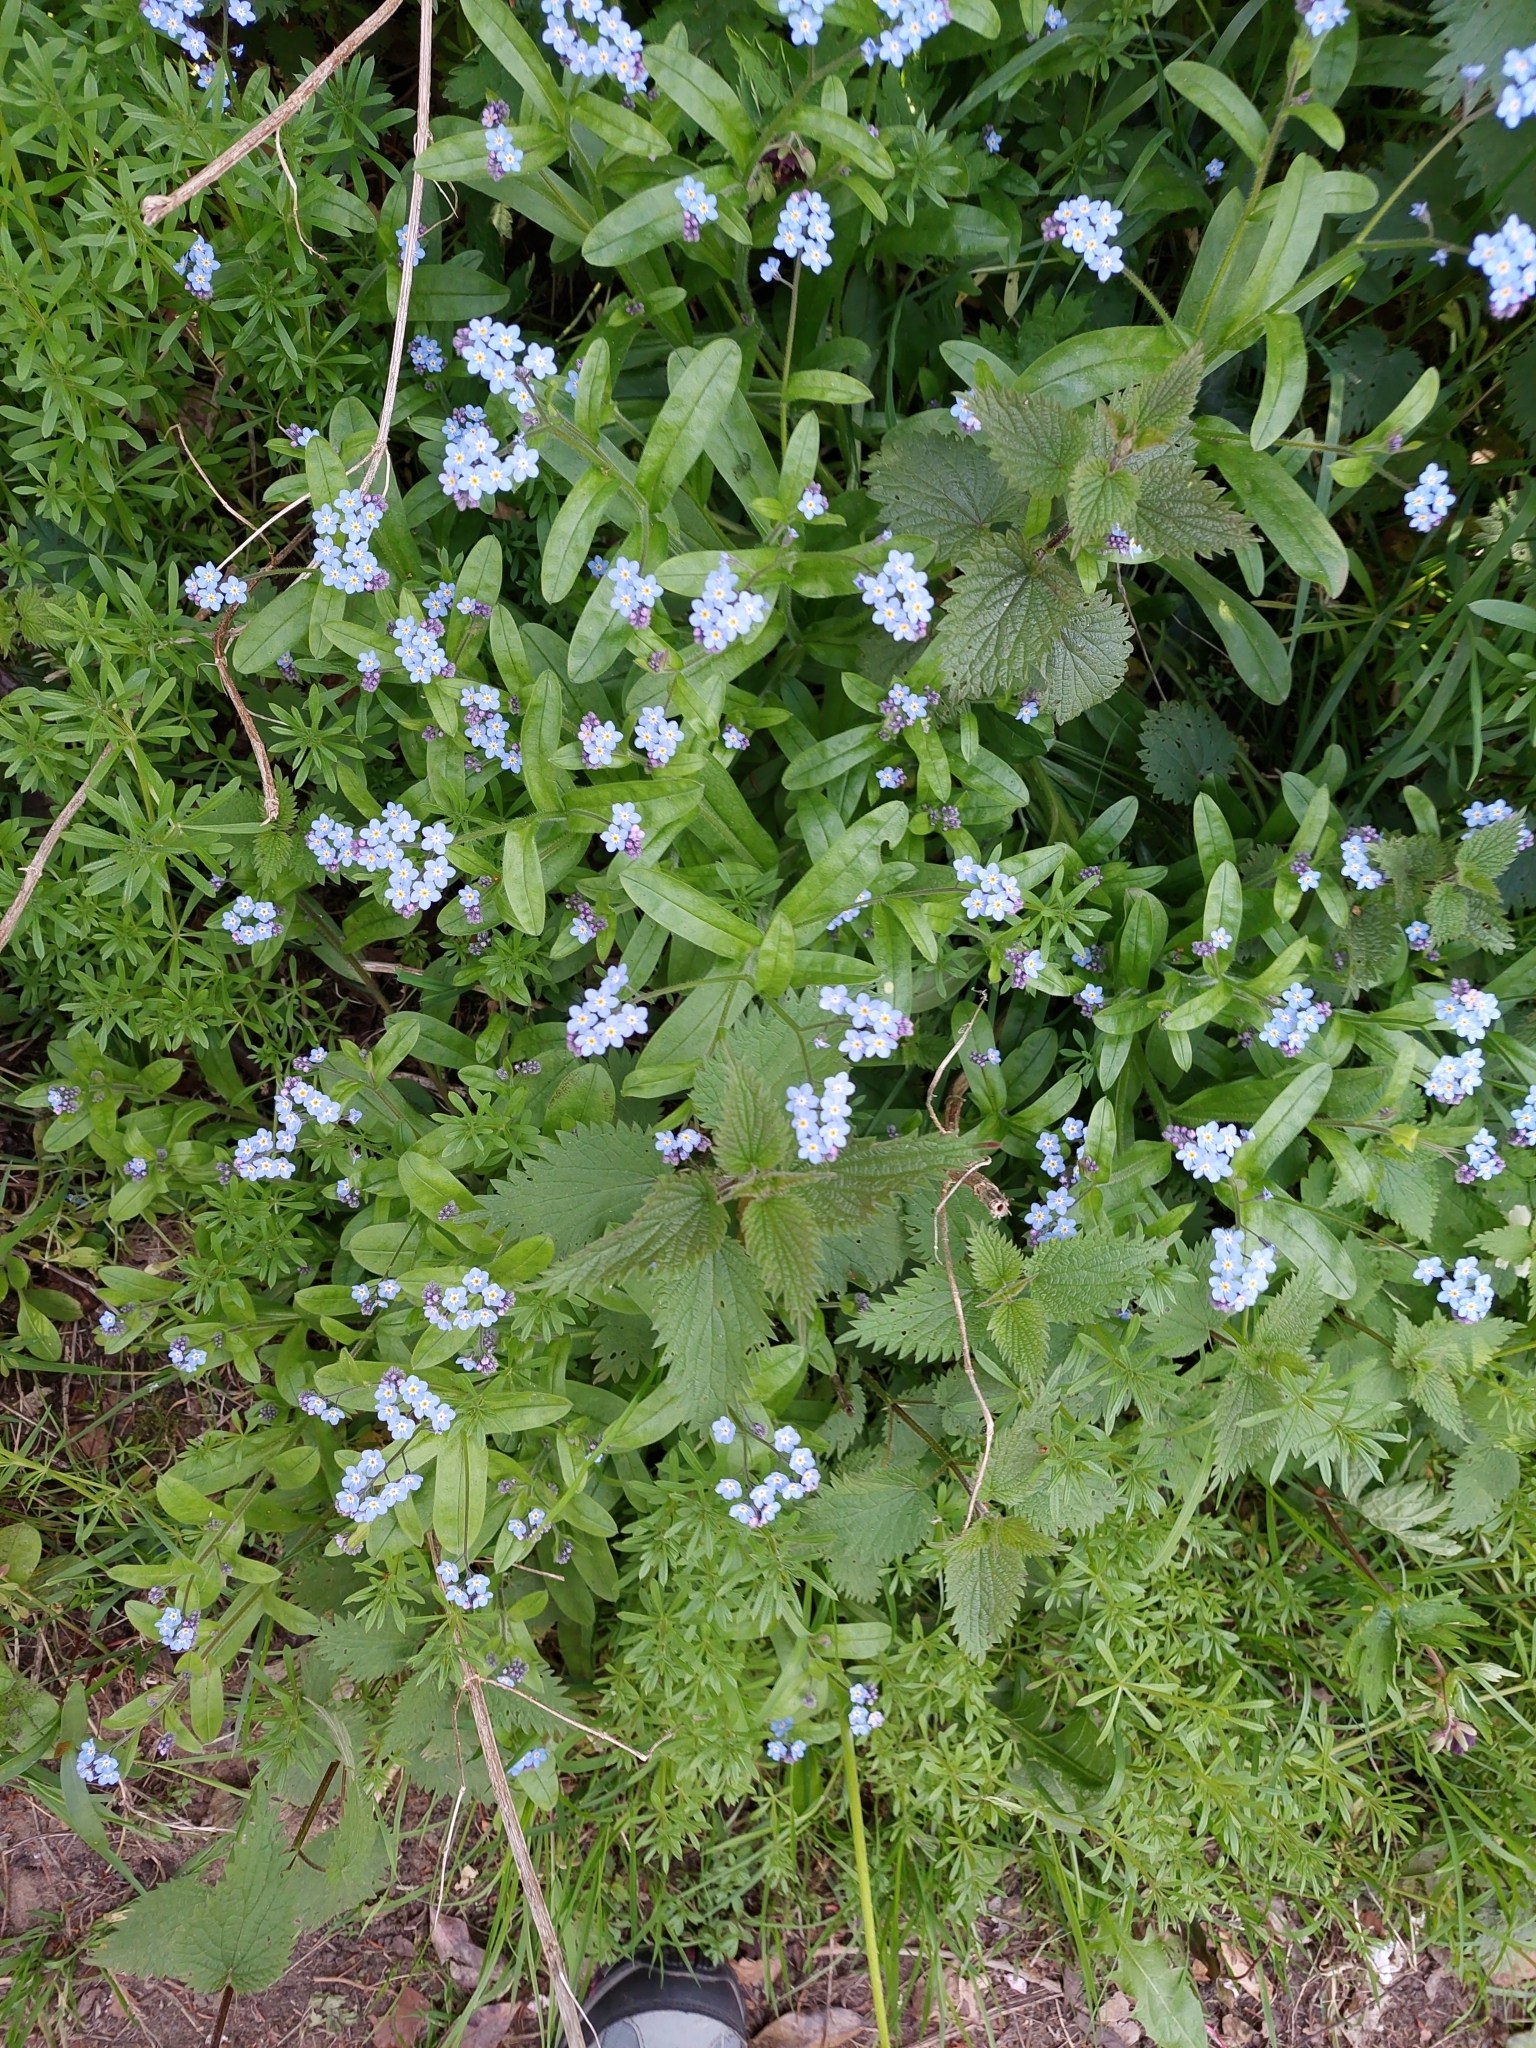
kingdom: Plantae
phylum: Tracheophyta
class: Magnoliopsida
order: Boraginales
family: Boraginaceae
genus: Myosotis
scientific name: Myosotis sylvatica
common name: Wood forget-me-not
